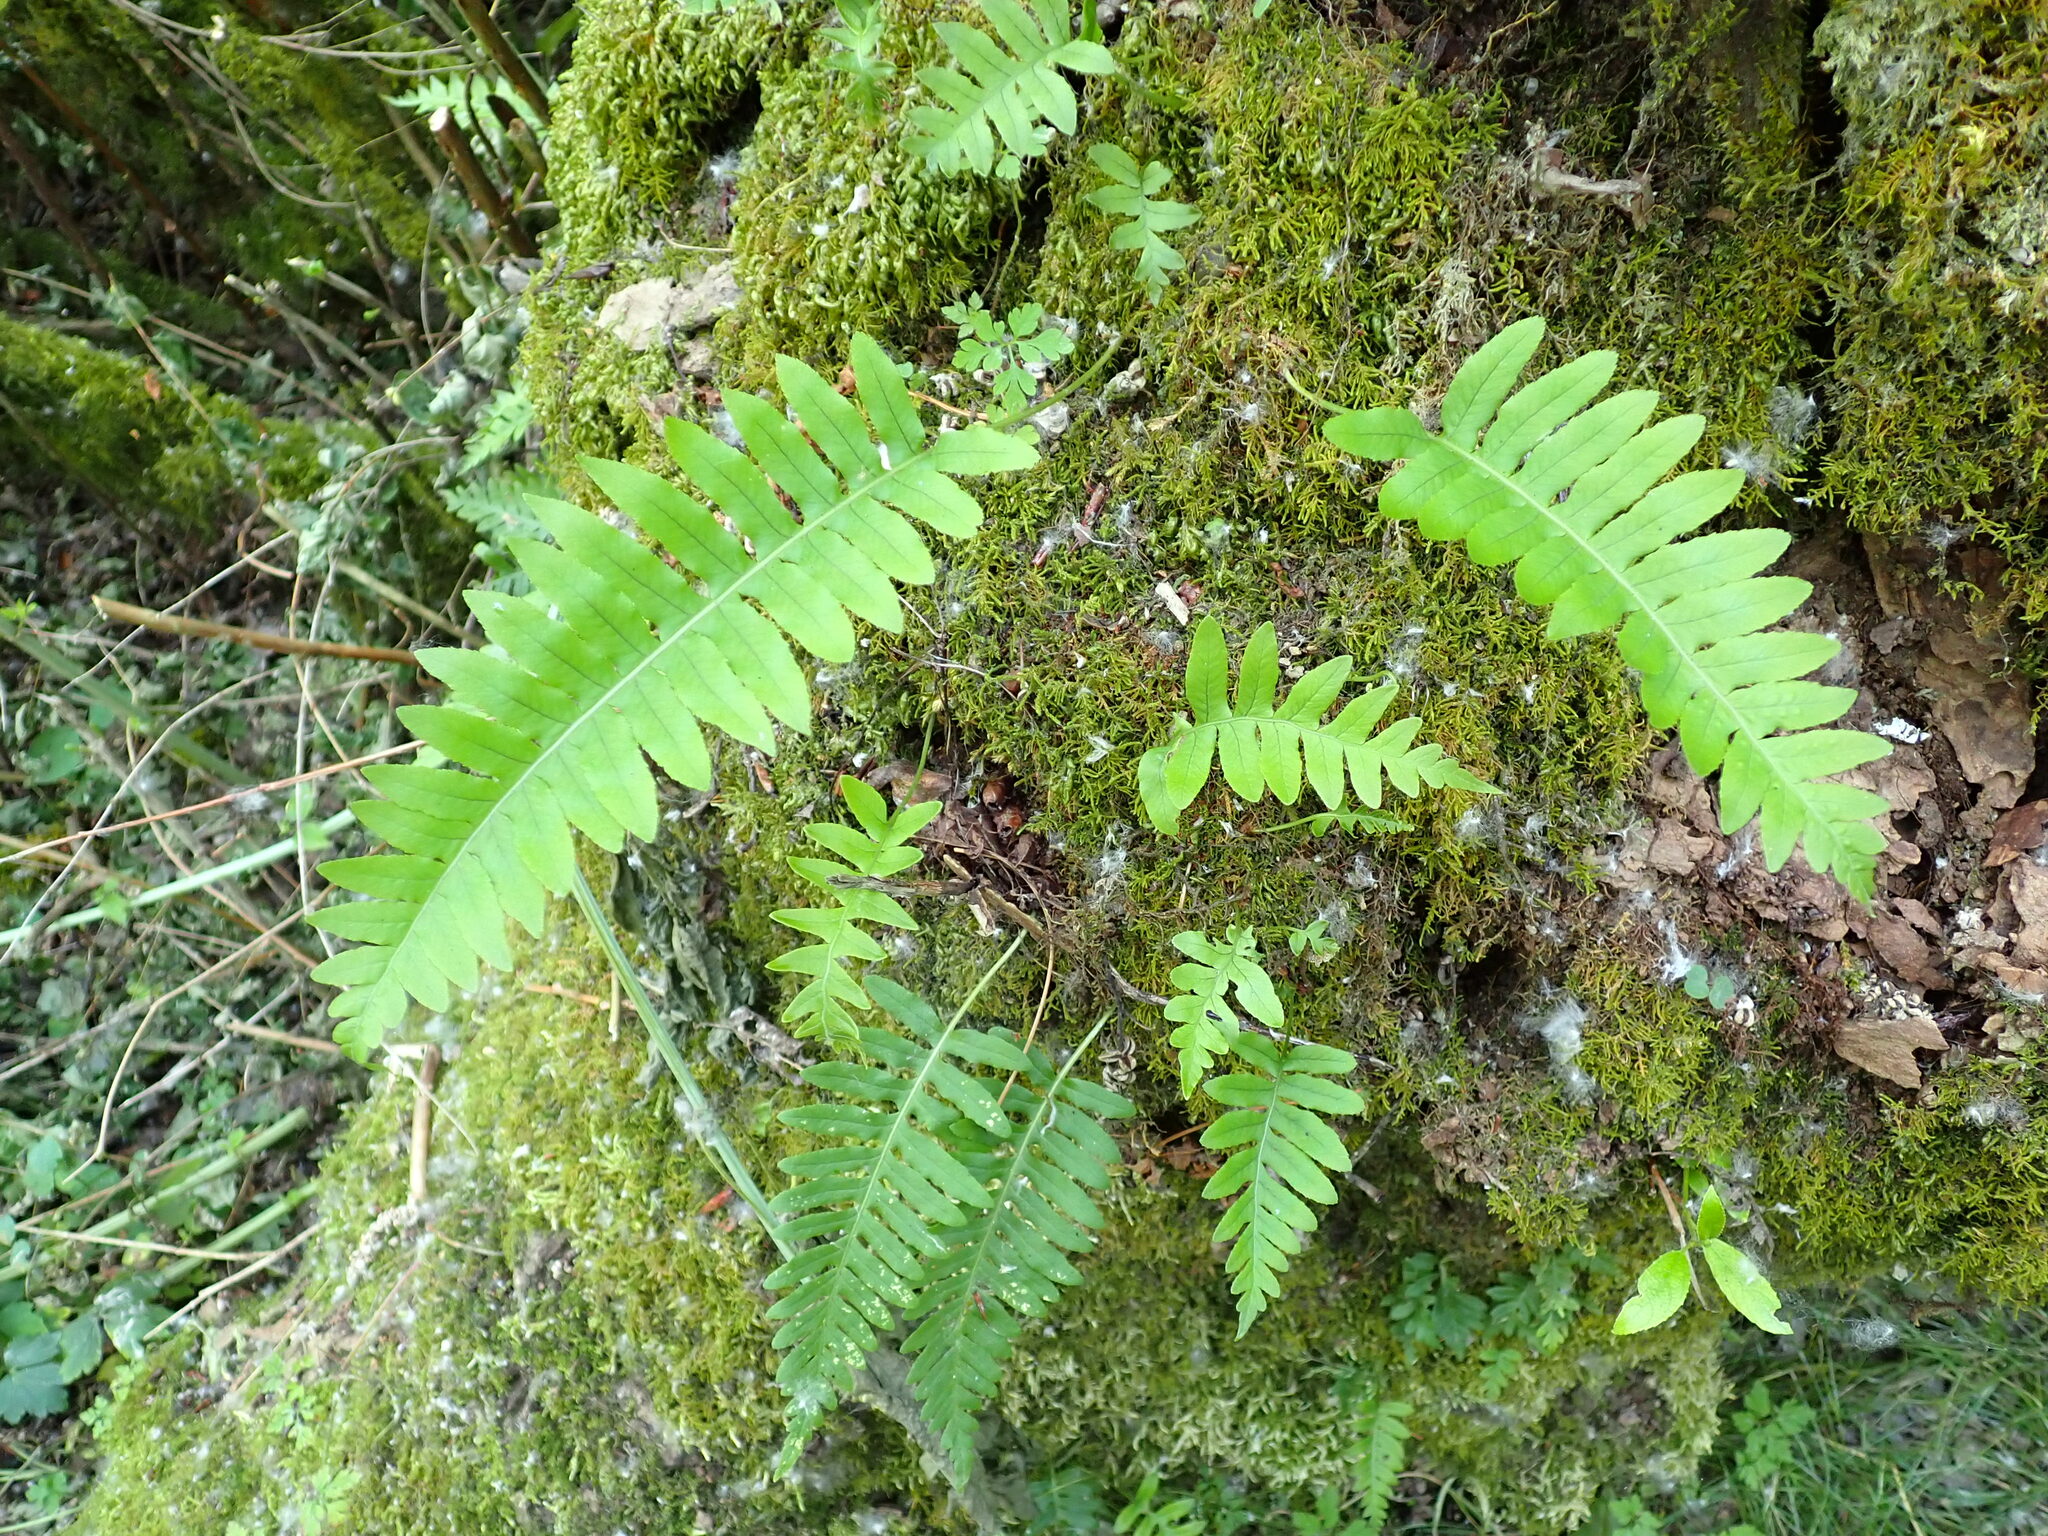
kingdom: Plantae
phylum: Tracheophyta
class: Polypodiopsida
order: Polypodiales
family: Polypodiaceae
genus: Polypodium
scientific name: Polypodium glycyrrhiza
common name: Licorice fern
